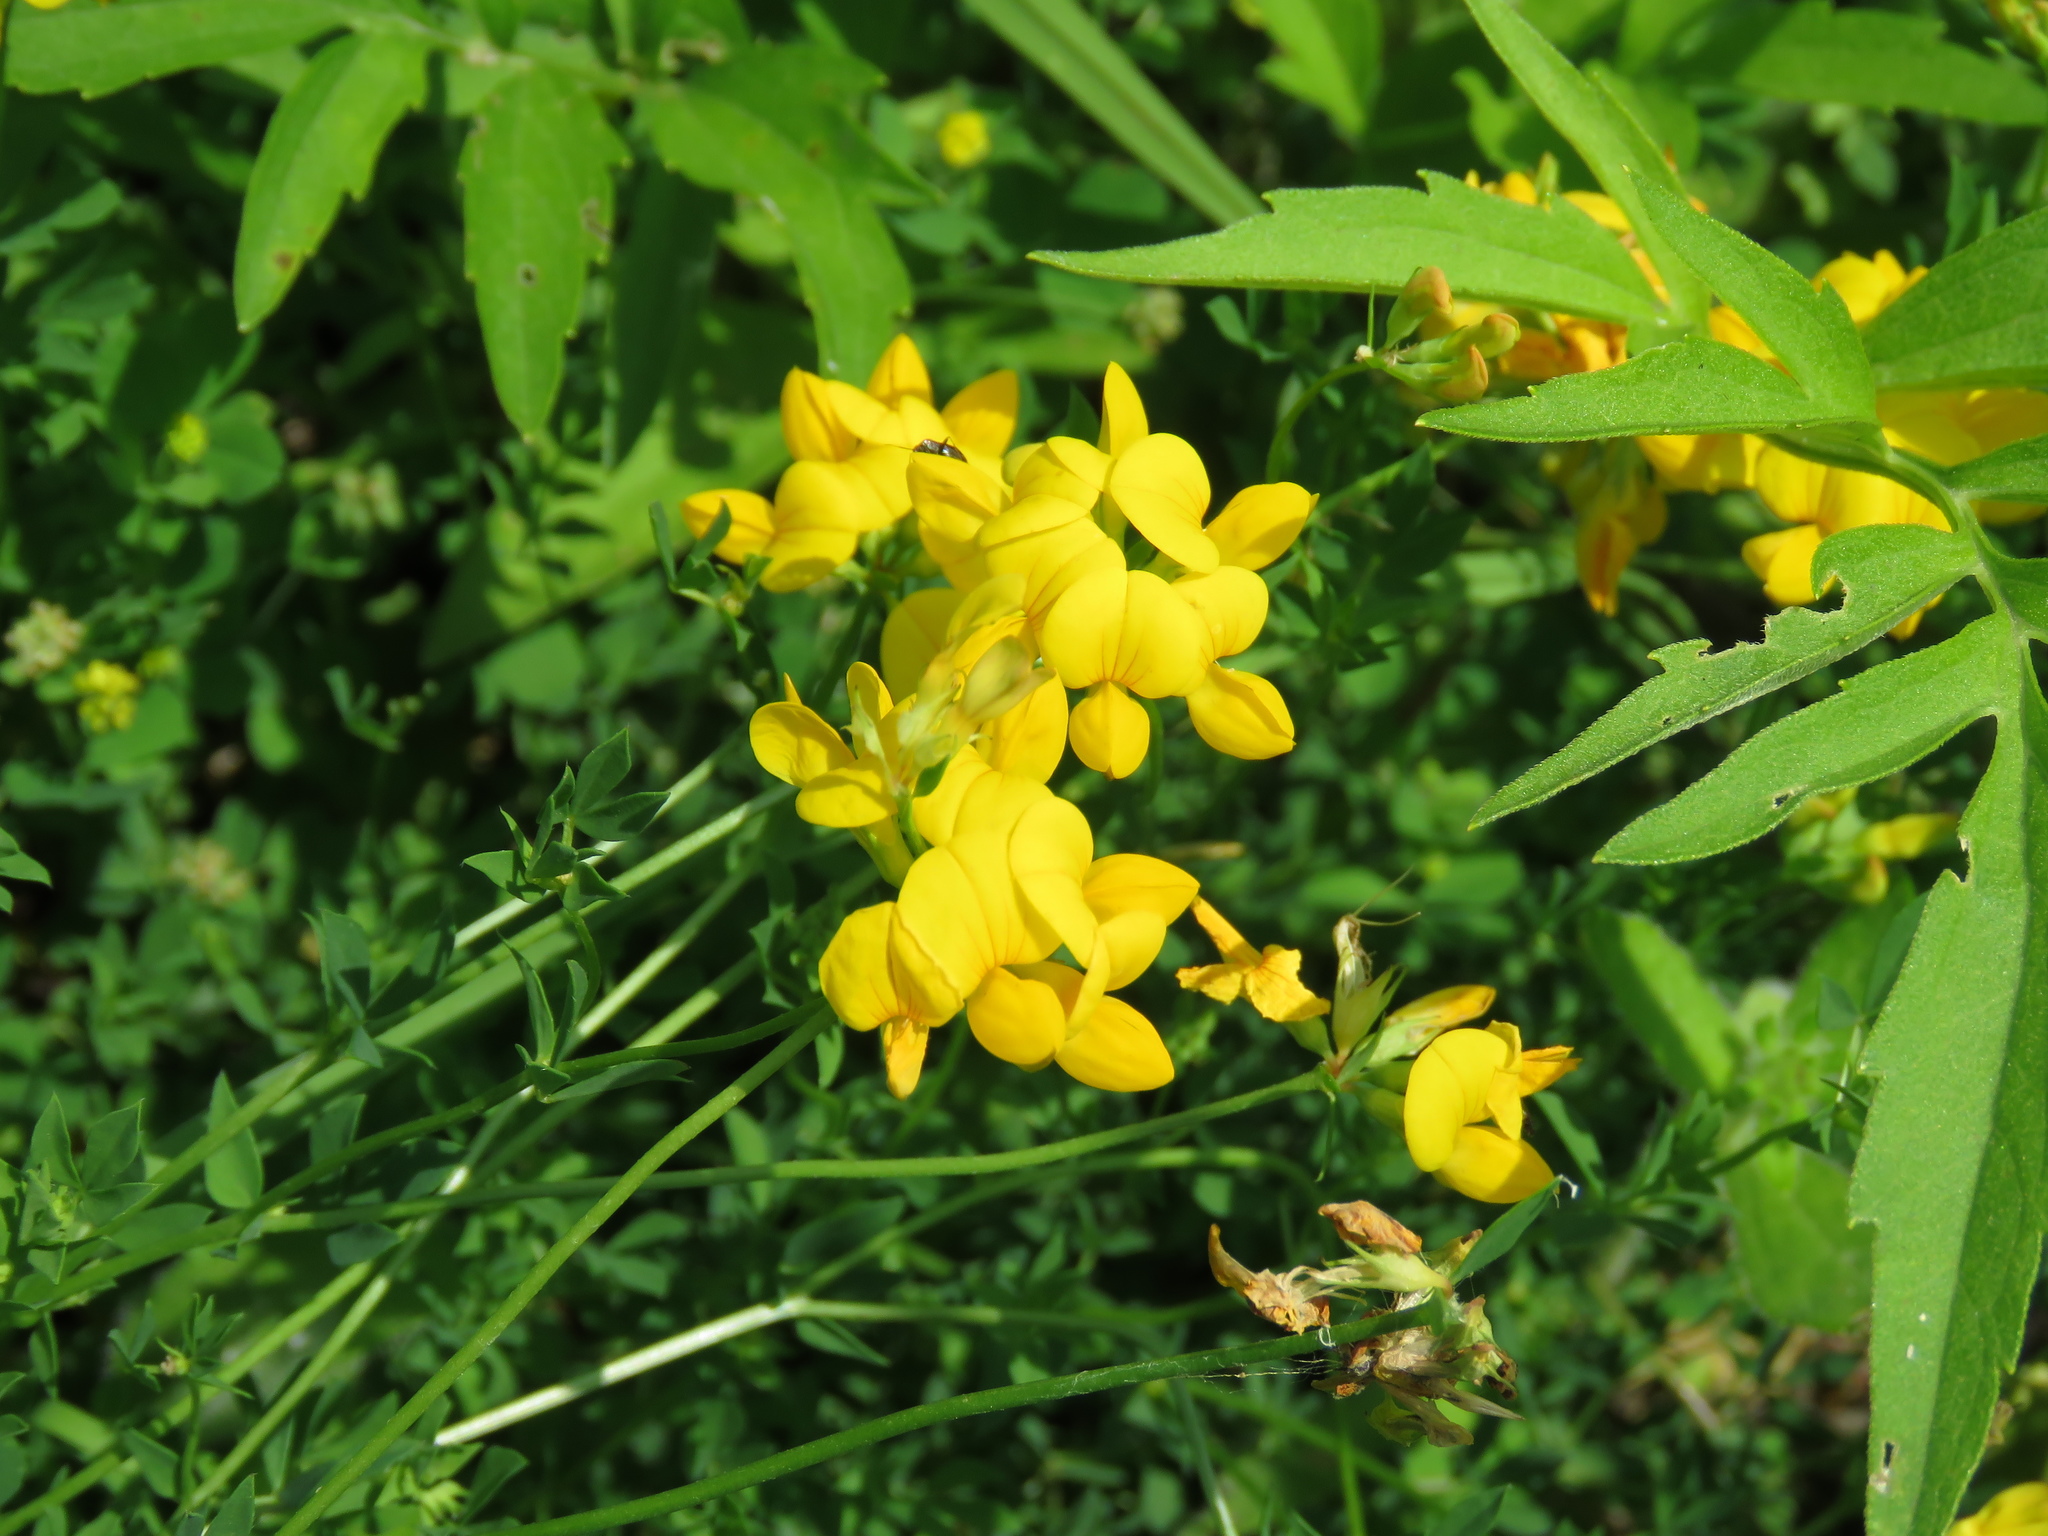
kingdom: Plantae
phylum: Tracheophyta
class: Magnoliopsida
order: Fabales
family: Fabaceae
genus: Lotus
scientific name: Lotus corniculatus
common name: Common bird's-foot-trefoil
